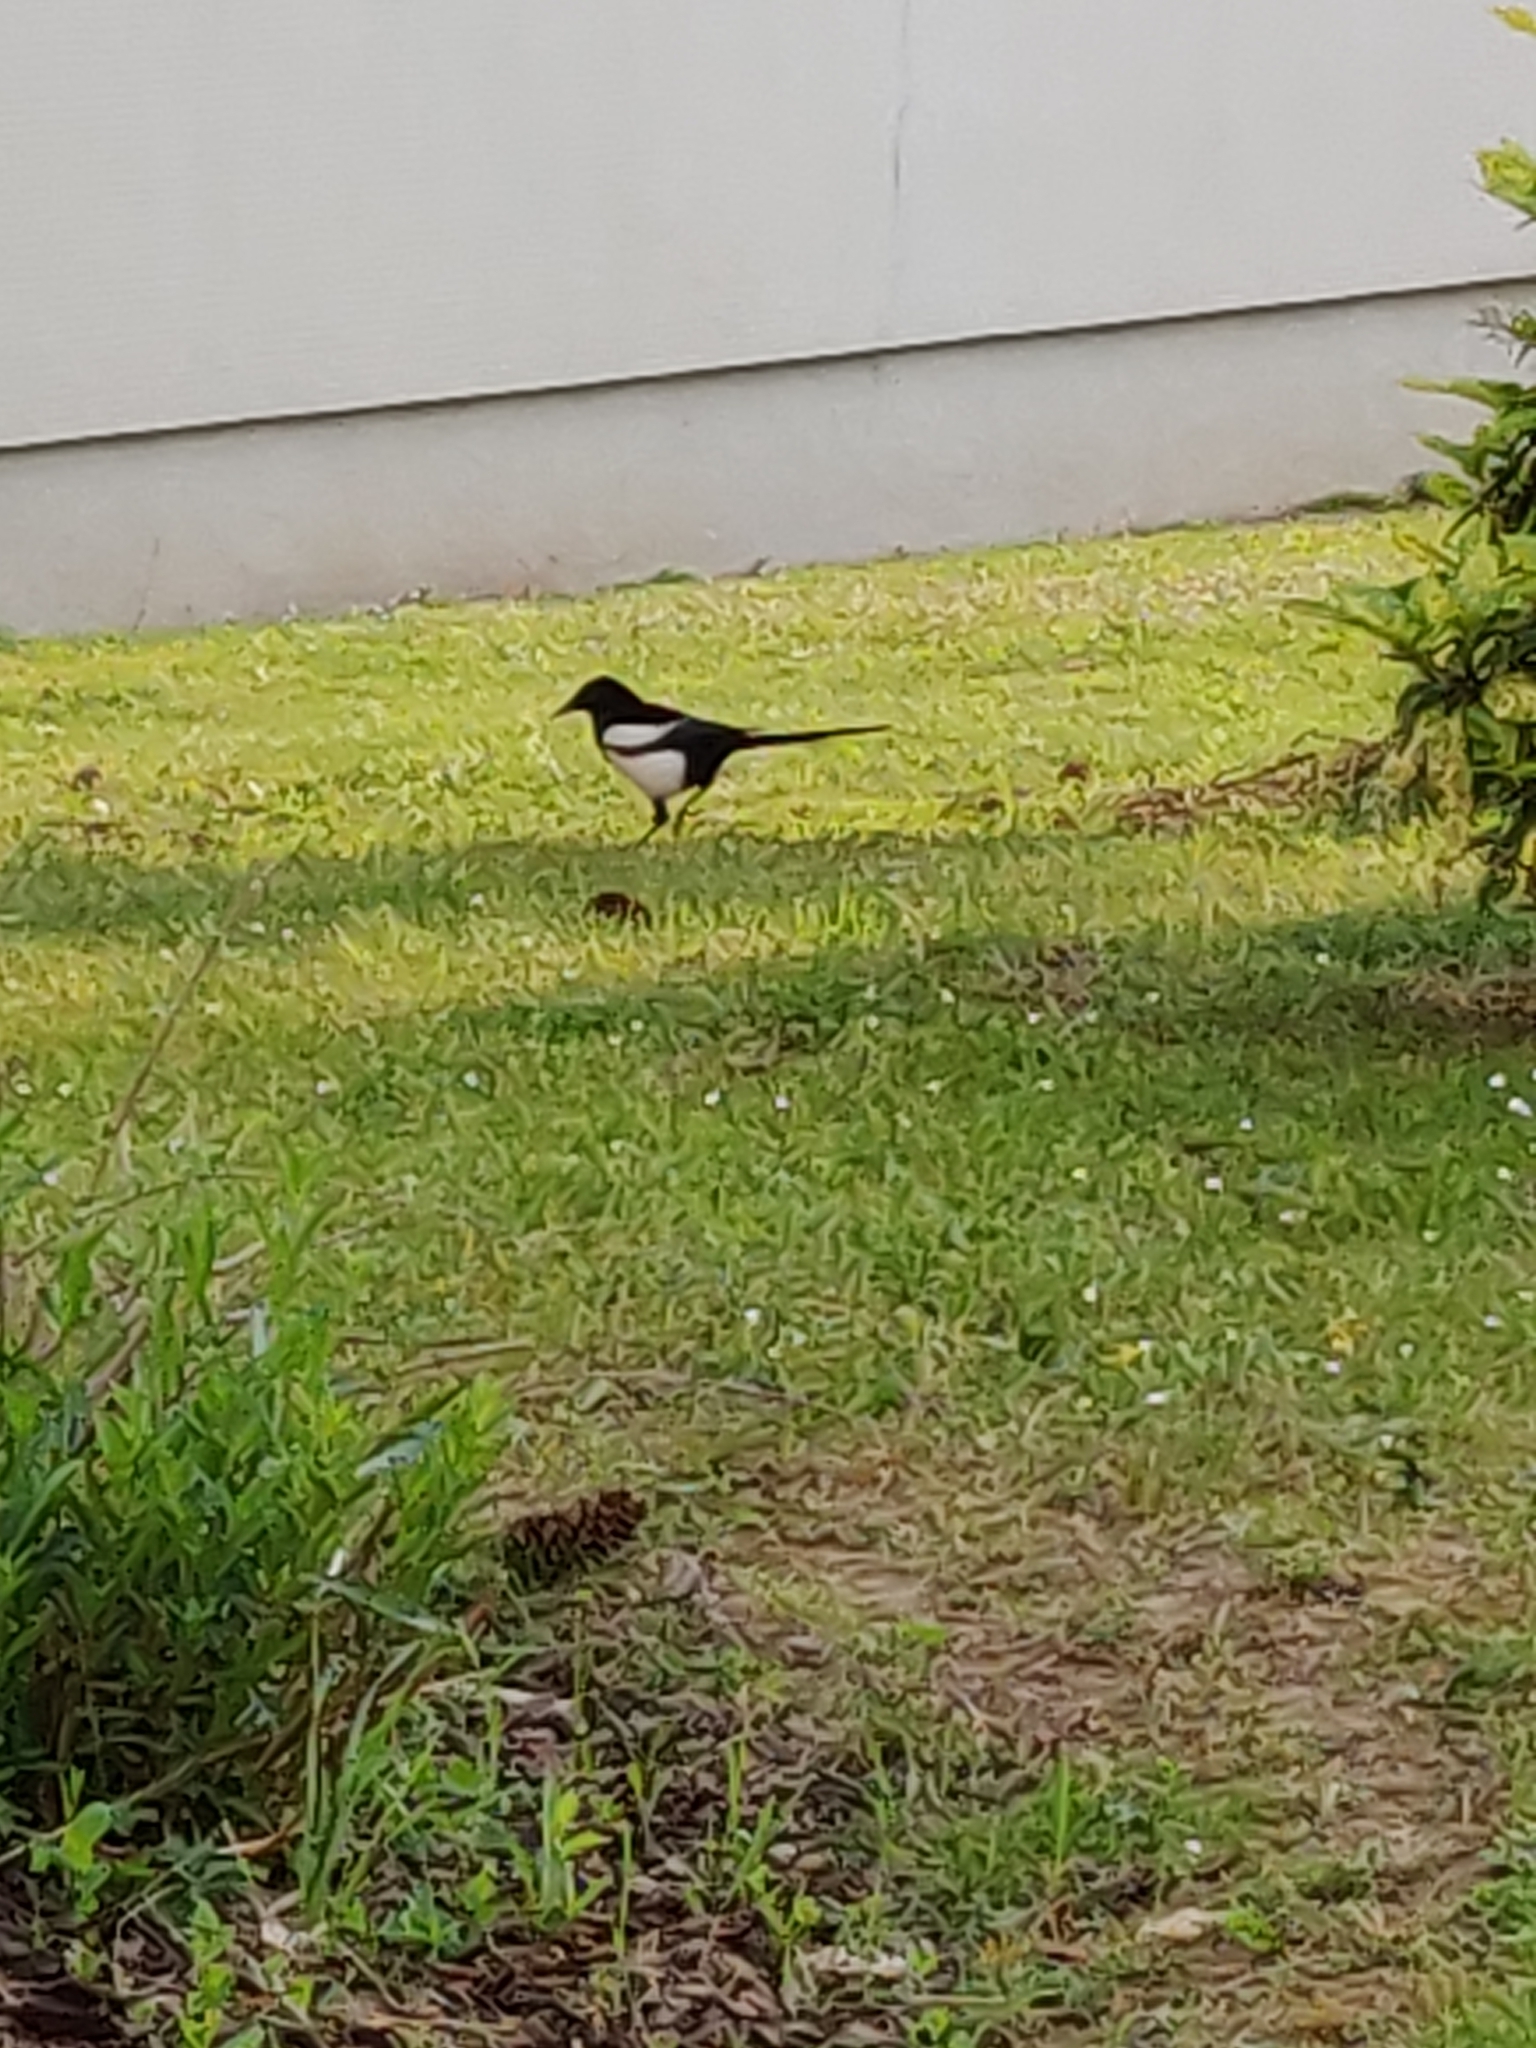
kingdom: Animalia
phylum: Chordata
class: Aves
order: Passeriformes
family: Corvidae
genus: Pica
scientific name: Pica pica
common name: Eurasian magpie
